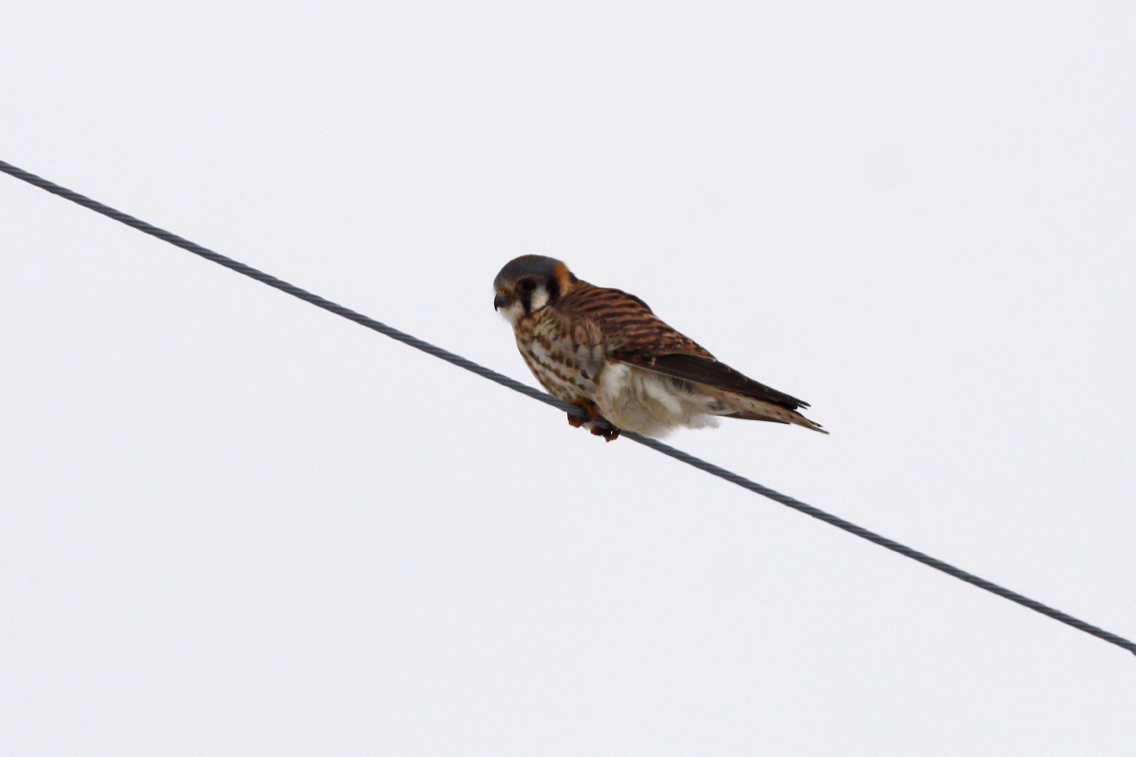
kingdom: Animalia
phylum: Chordata
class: Aves
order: Falconiformes
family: Falconidae
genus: Falco
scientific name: Falco sparverius
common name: American kestrel
